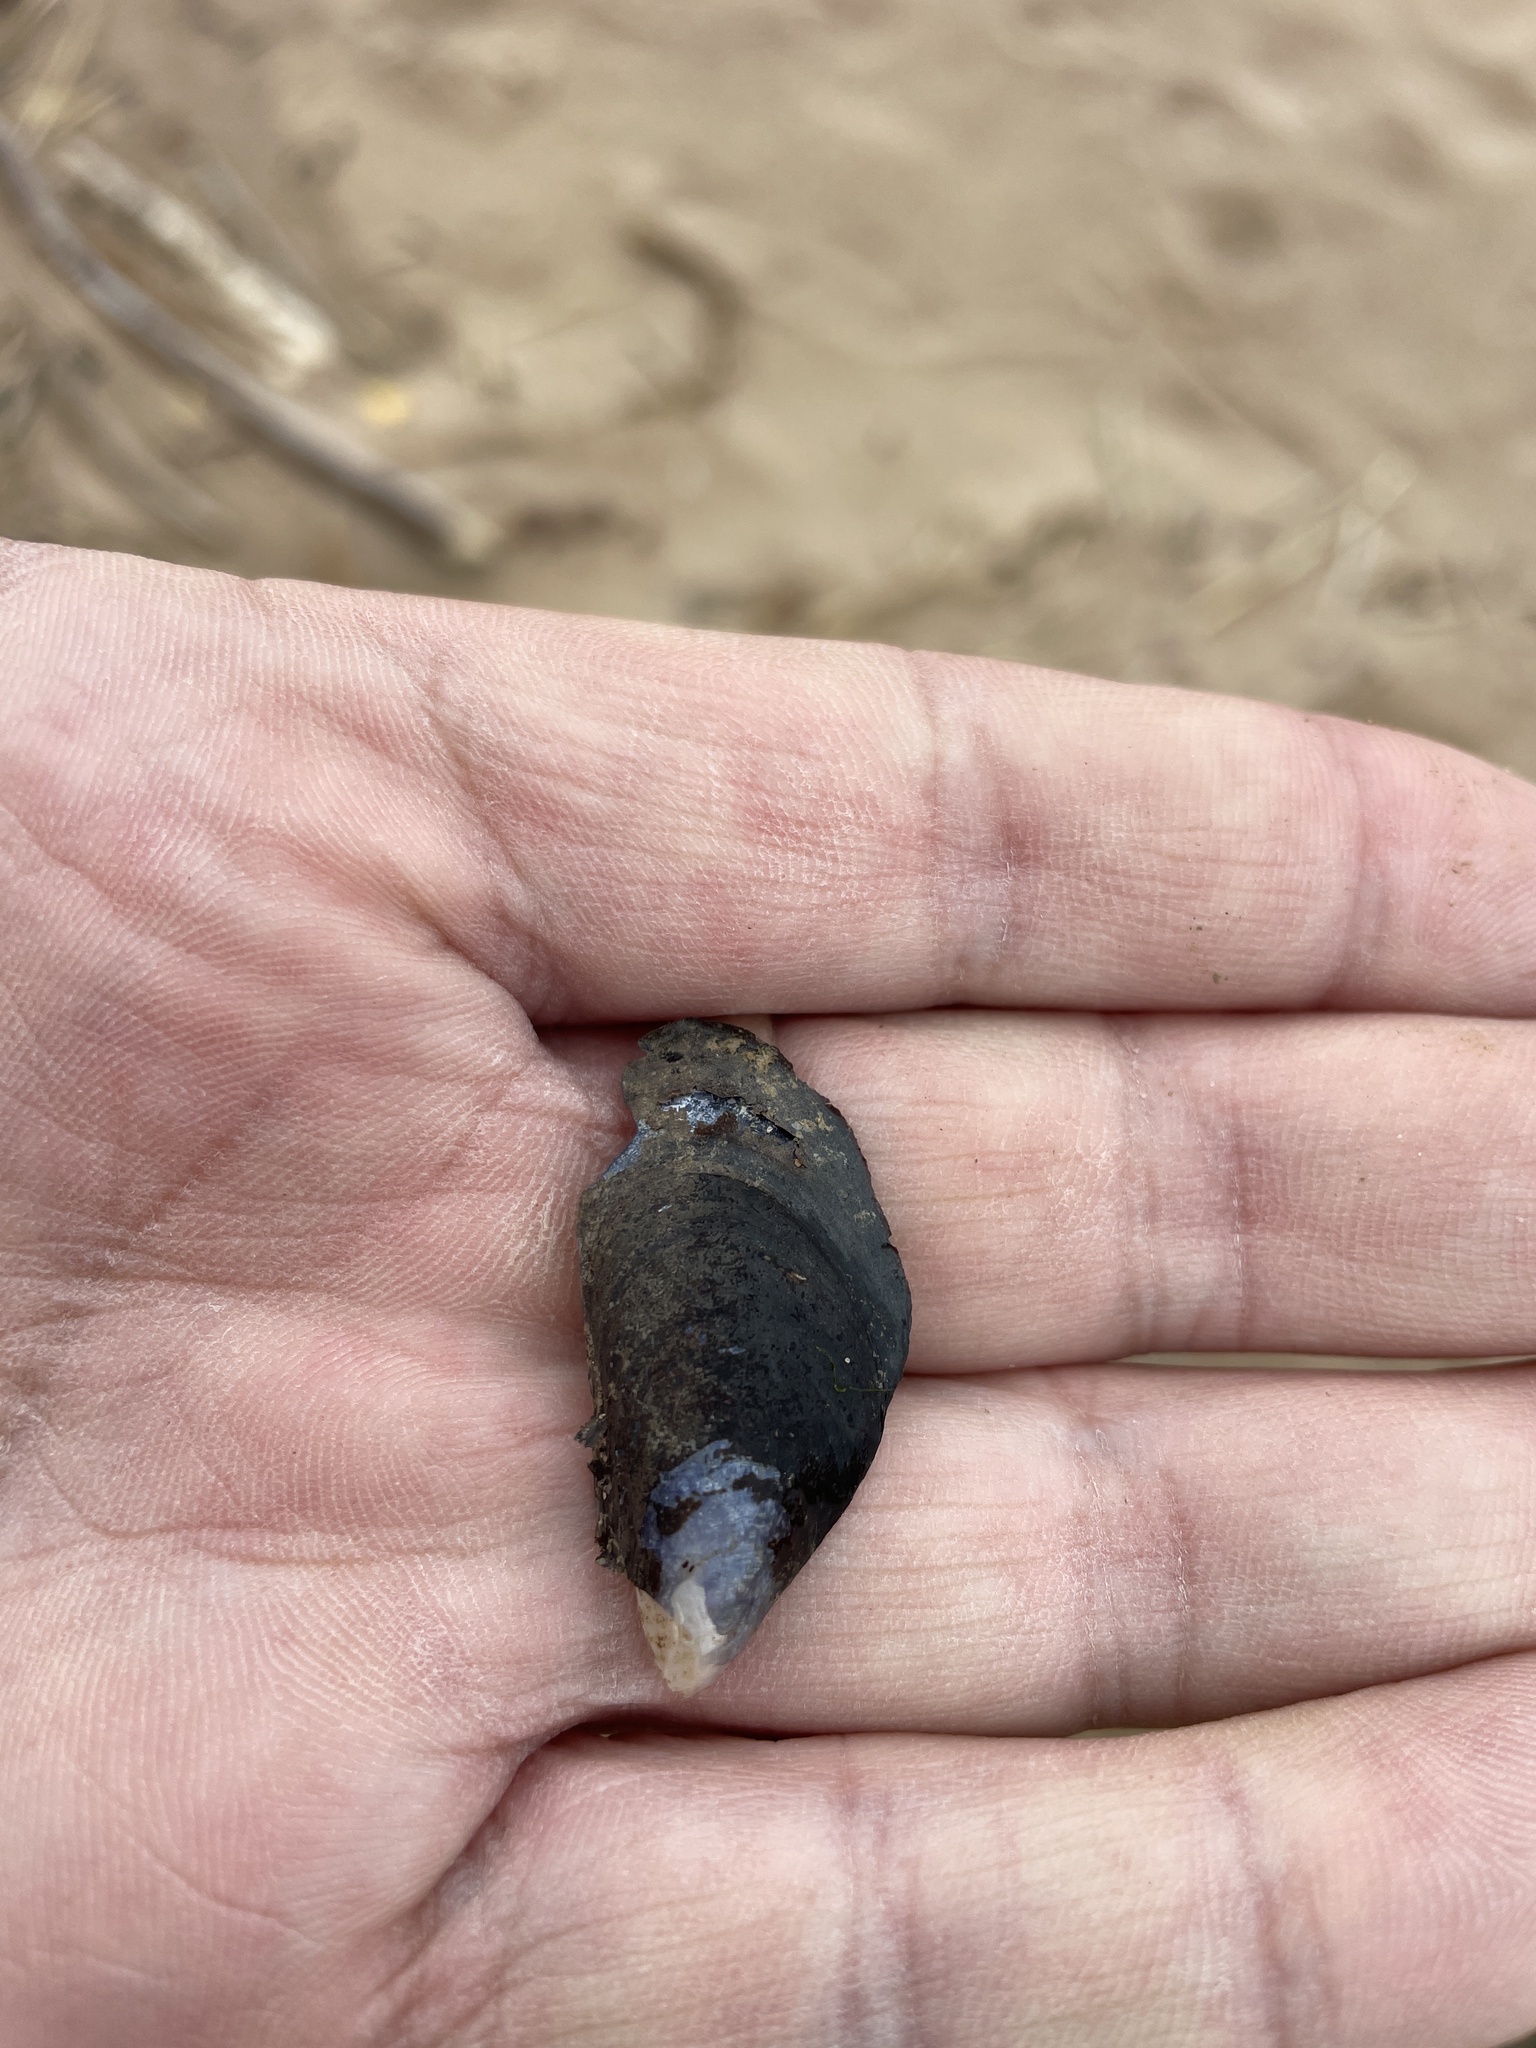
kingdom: Animalia
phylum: Mollusca
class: Bivalvia
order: Mytilida
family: Mytilidae
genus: Mytilus
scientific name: Mytilus edulis
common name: Blue mussel
